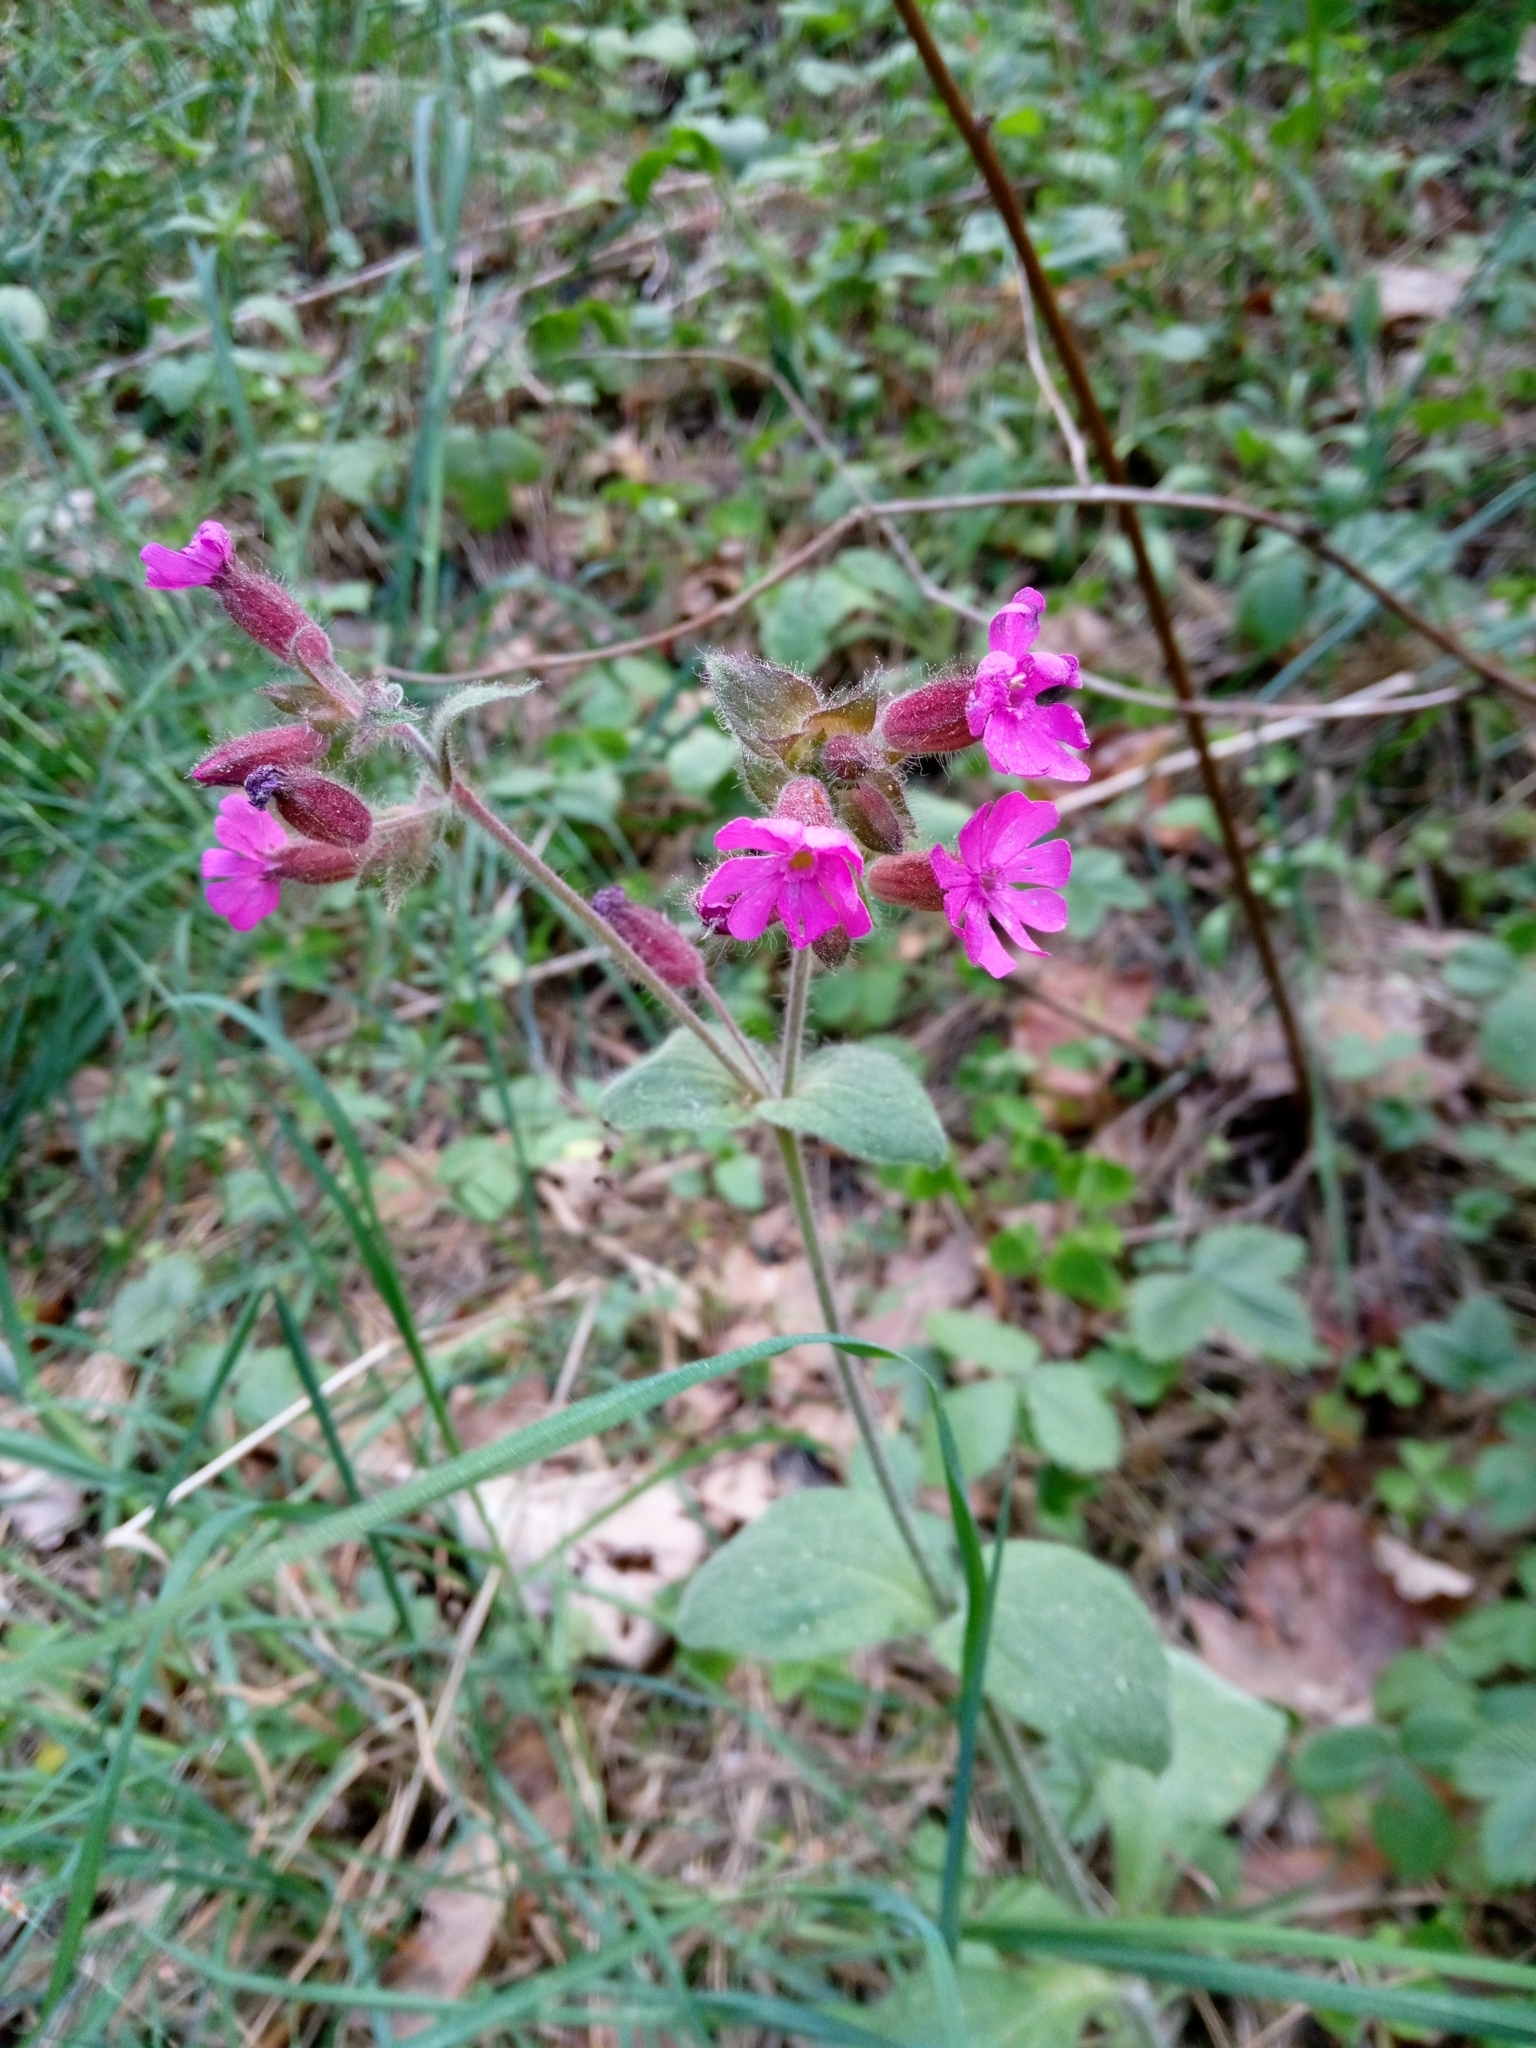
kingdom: Plantae
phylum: Tracheophyta
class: Magnoliopsida
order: Caryophyllales
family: Caryophyllaceae
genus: Silene
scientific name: Silene dioica
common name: Red campion
